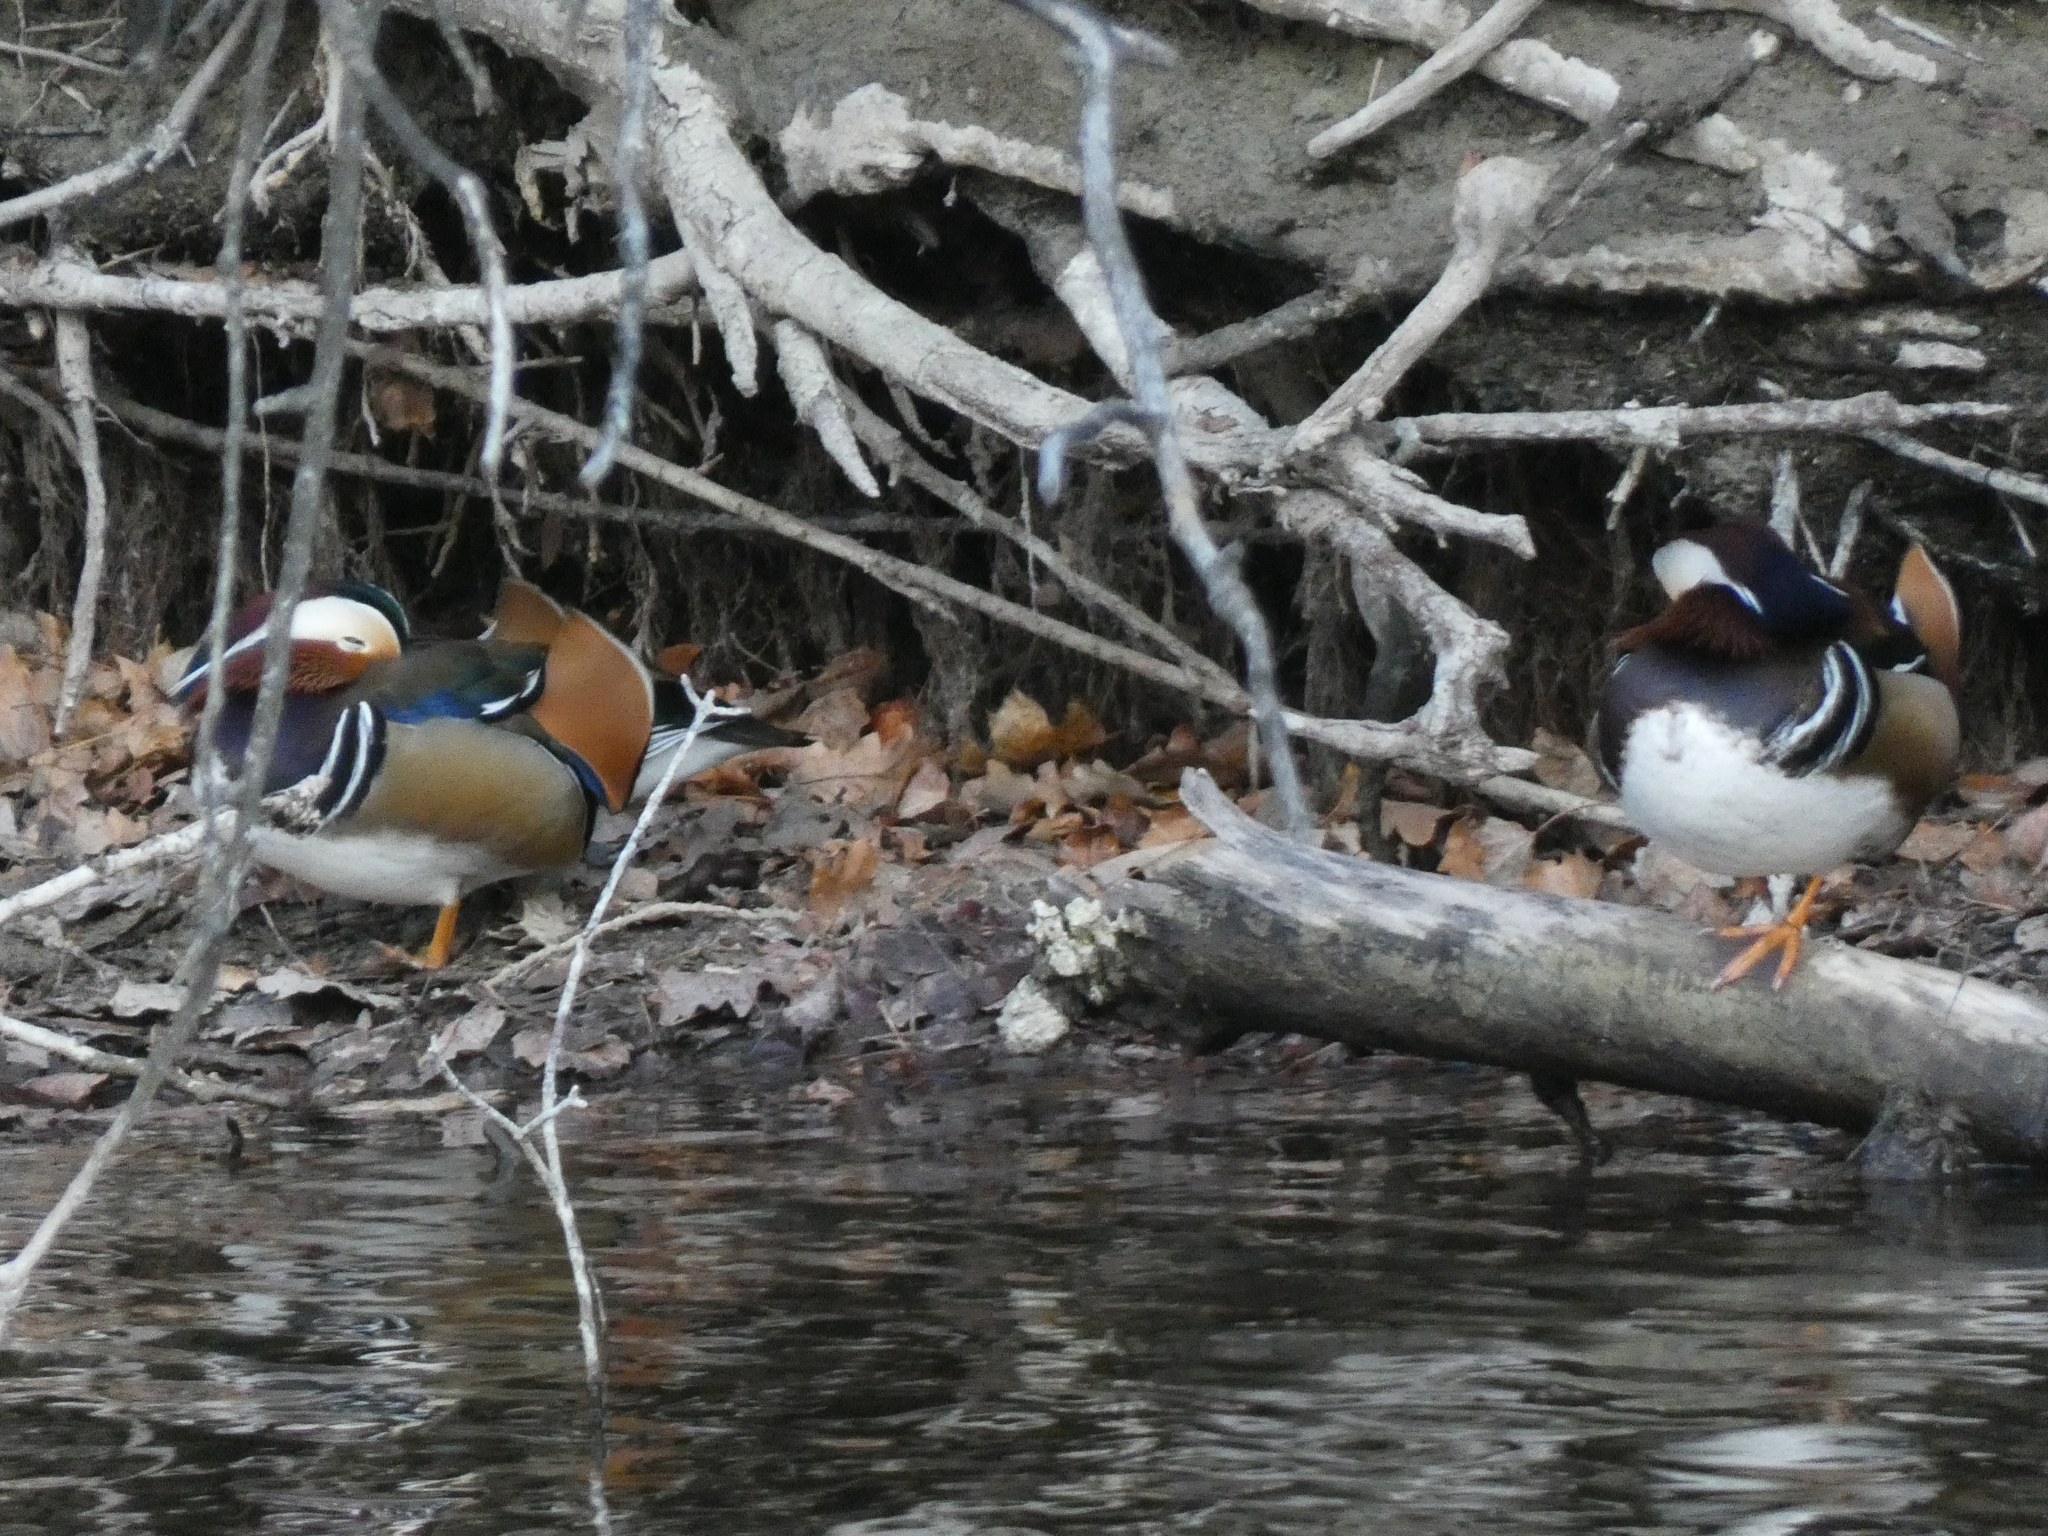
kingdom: Animalia
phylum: Chordata
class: Aves
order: Anseriformes
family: Anatidae
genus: Aix
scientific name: Aix galericulata
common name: Mandarin duck
